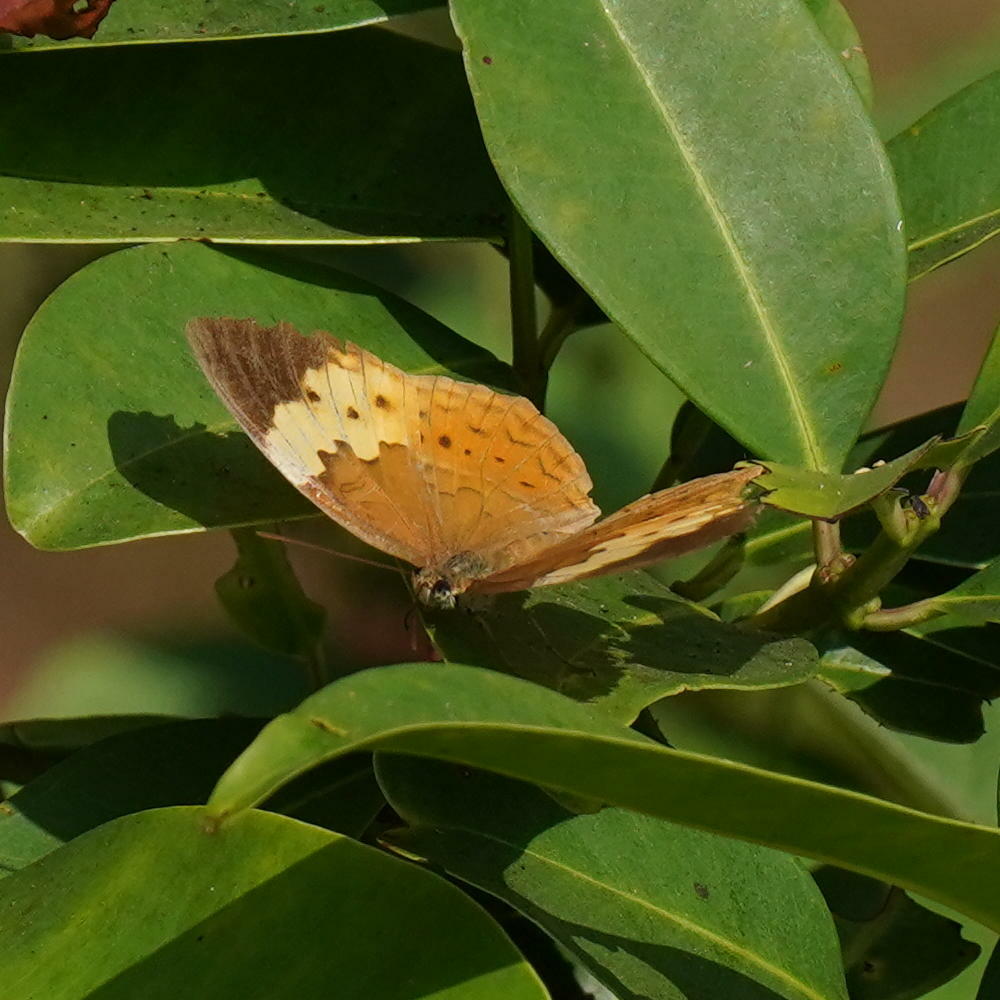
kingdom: Animalia
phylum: Arthropoda
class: Insecta
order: Lepidoptera
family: Nymphalidae
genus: Cupha
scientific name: Cupha erymanthis
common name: Rustic
